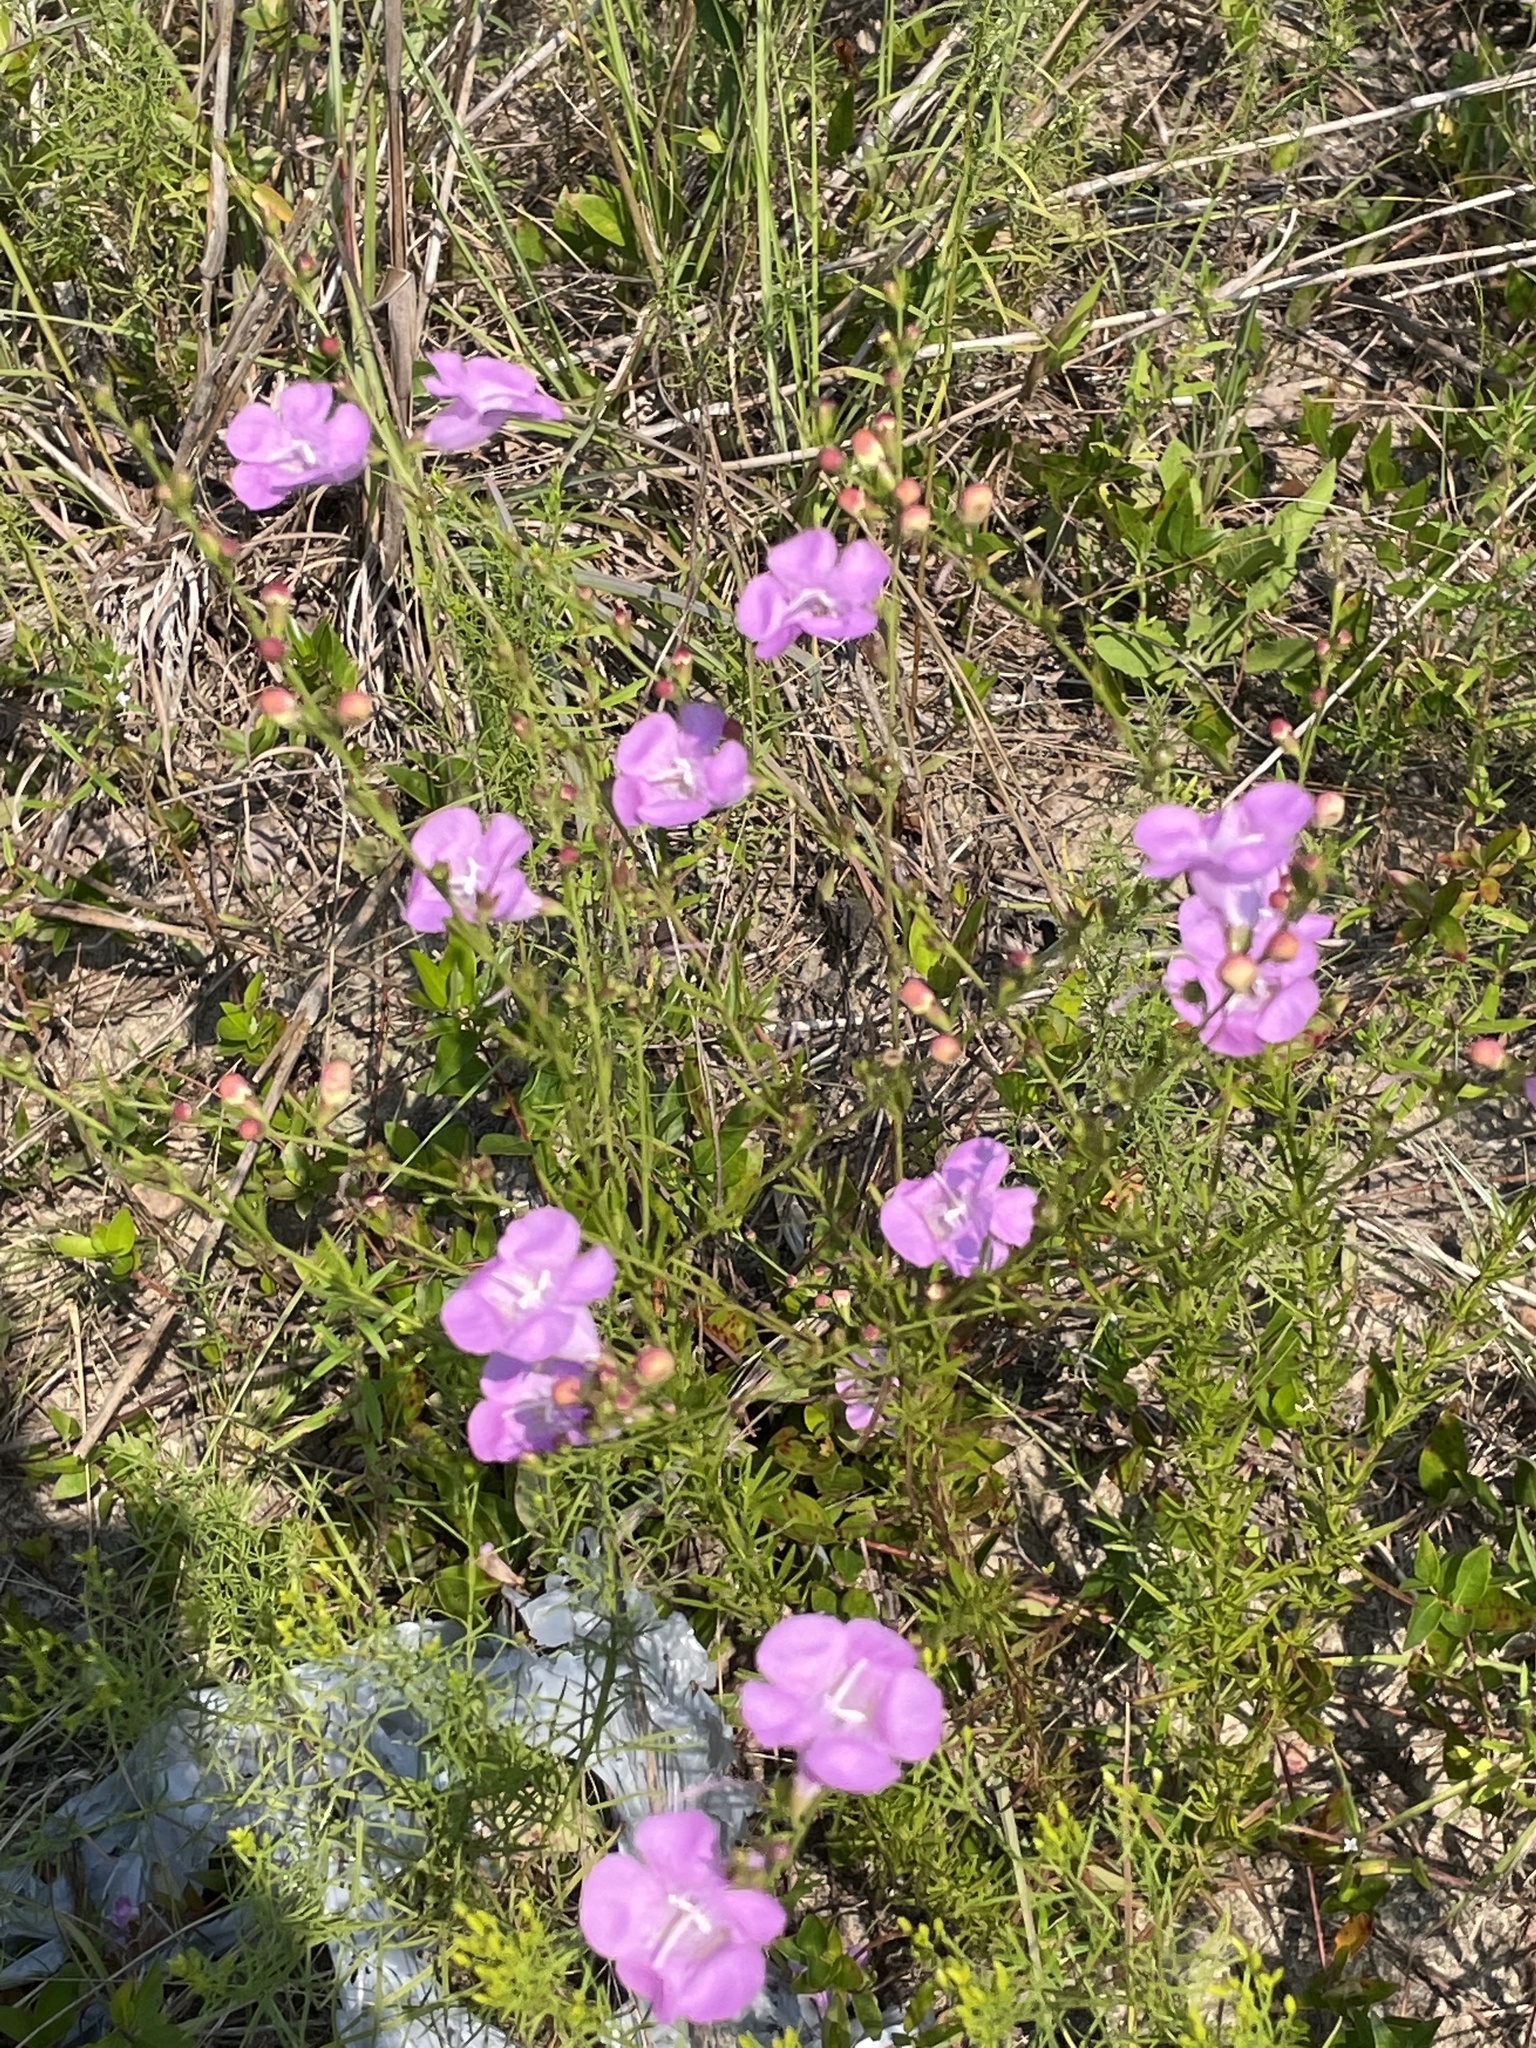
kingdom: Plantae
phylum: Tracheophyta
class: Magnoliopsida
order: Lamiales
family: Orobanchaceae
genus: Agalinis
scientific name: Agalinis fasciculata
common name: Beach false foxglove
